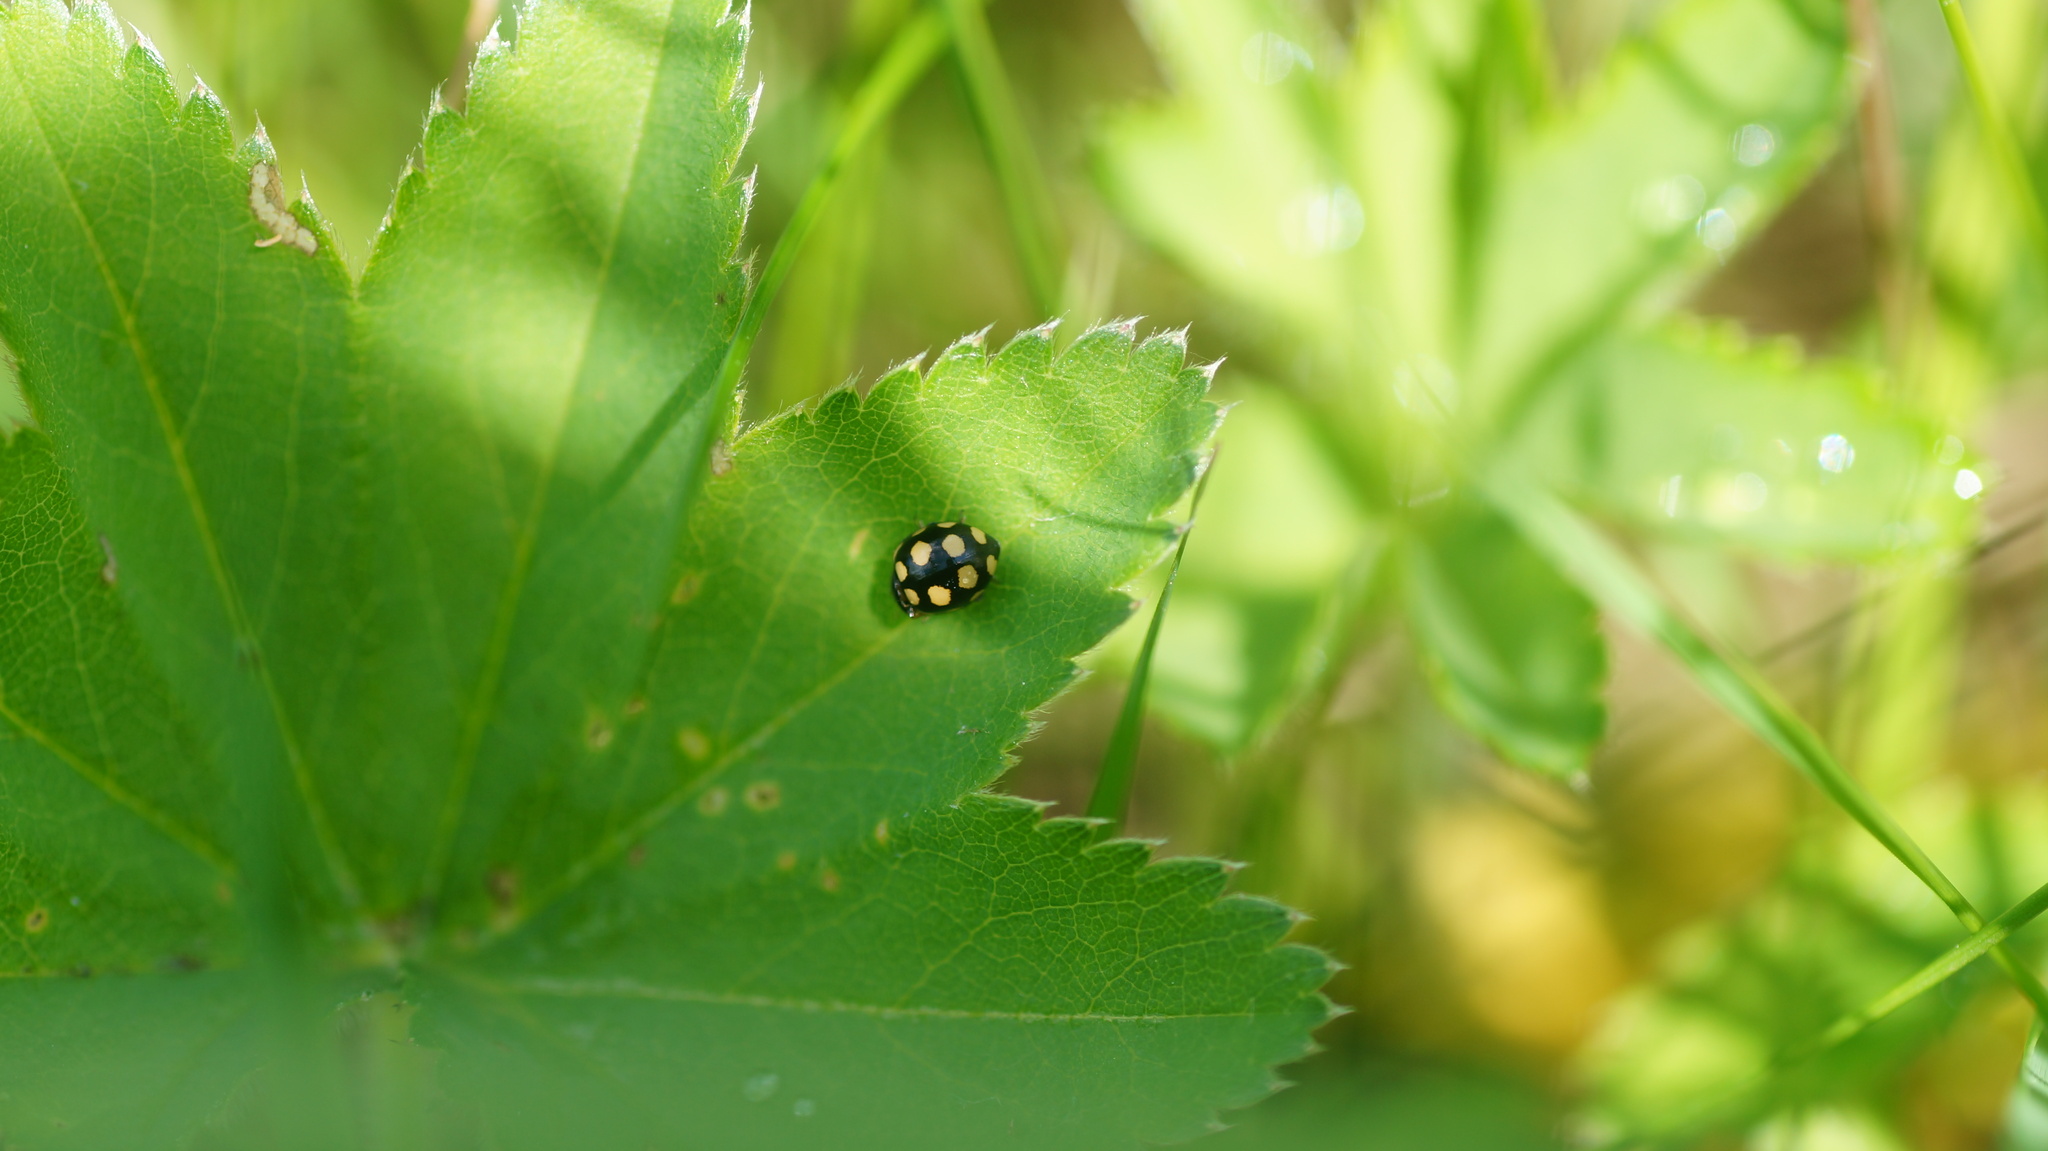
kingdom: Animalia
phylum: Arthropoda
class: Insecta
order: Coleoptera
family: Coccinellidae
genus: Coccinula
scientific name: Coccinula quatuordecimpustulata
